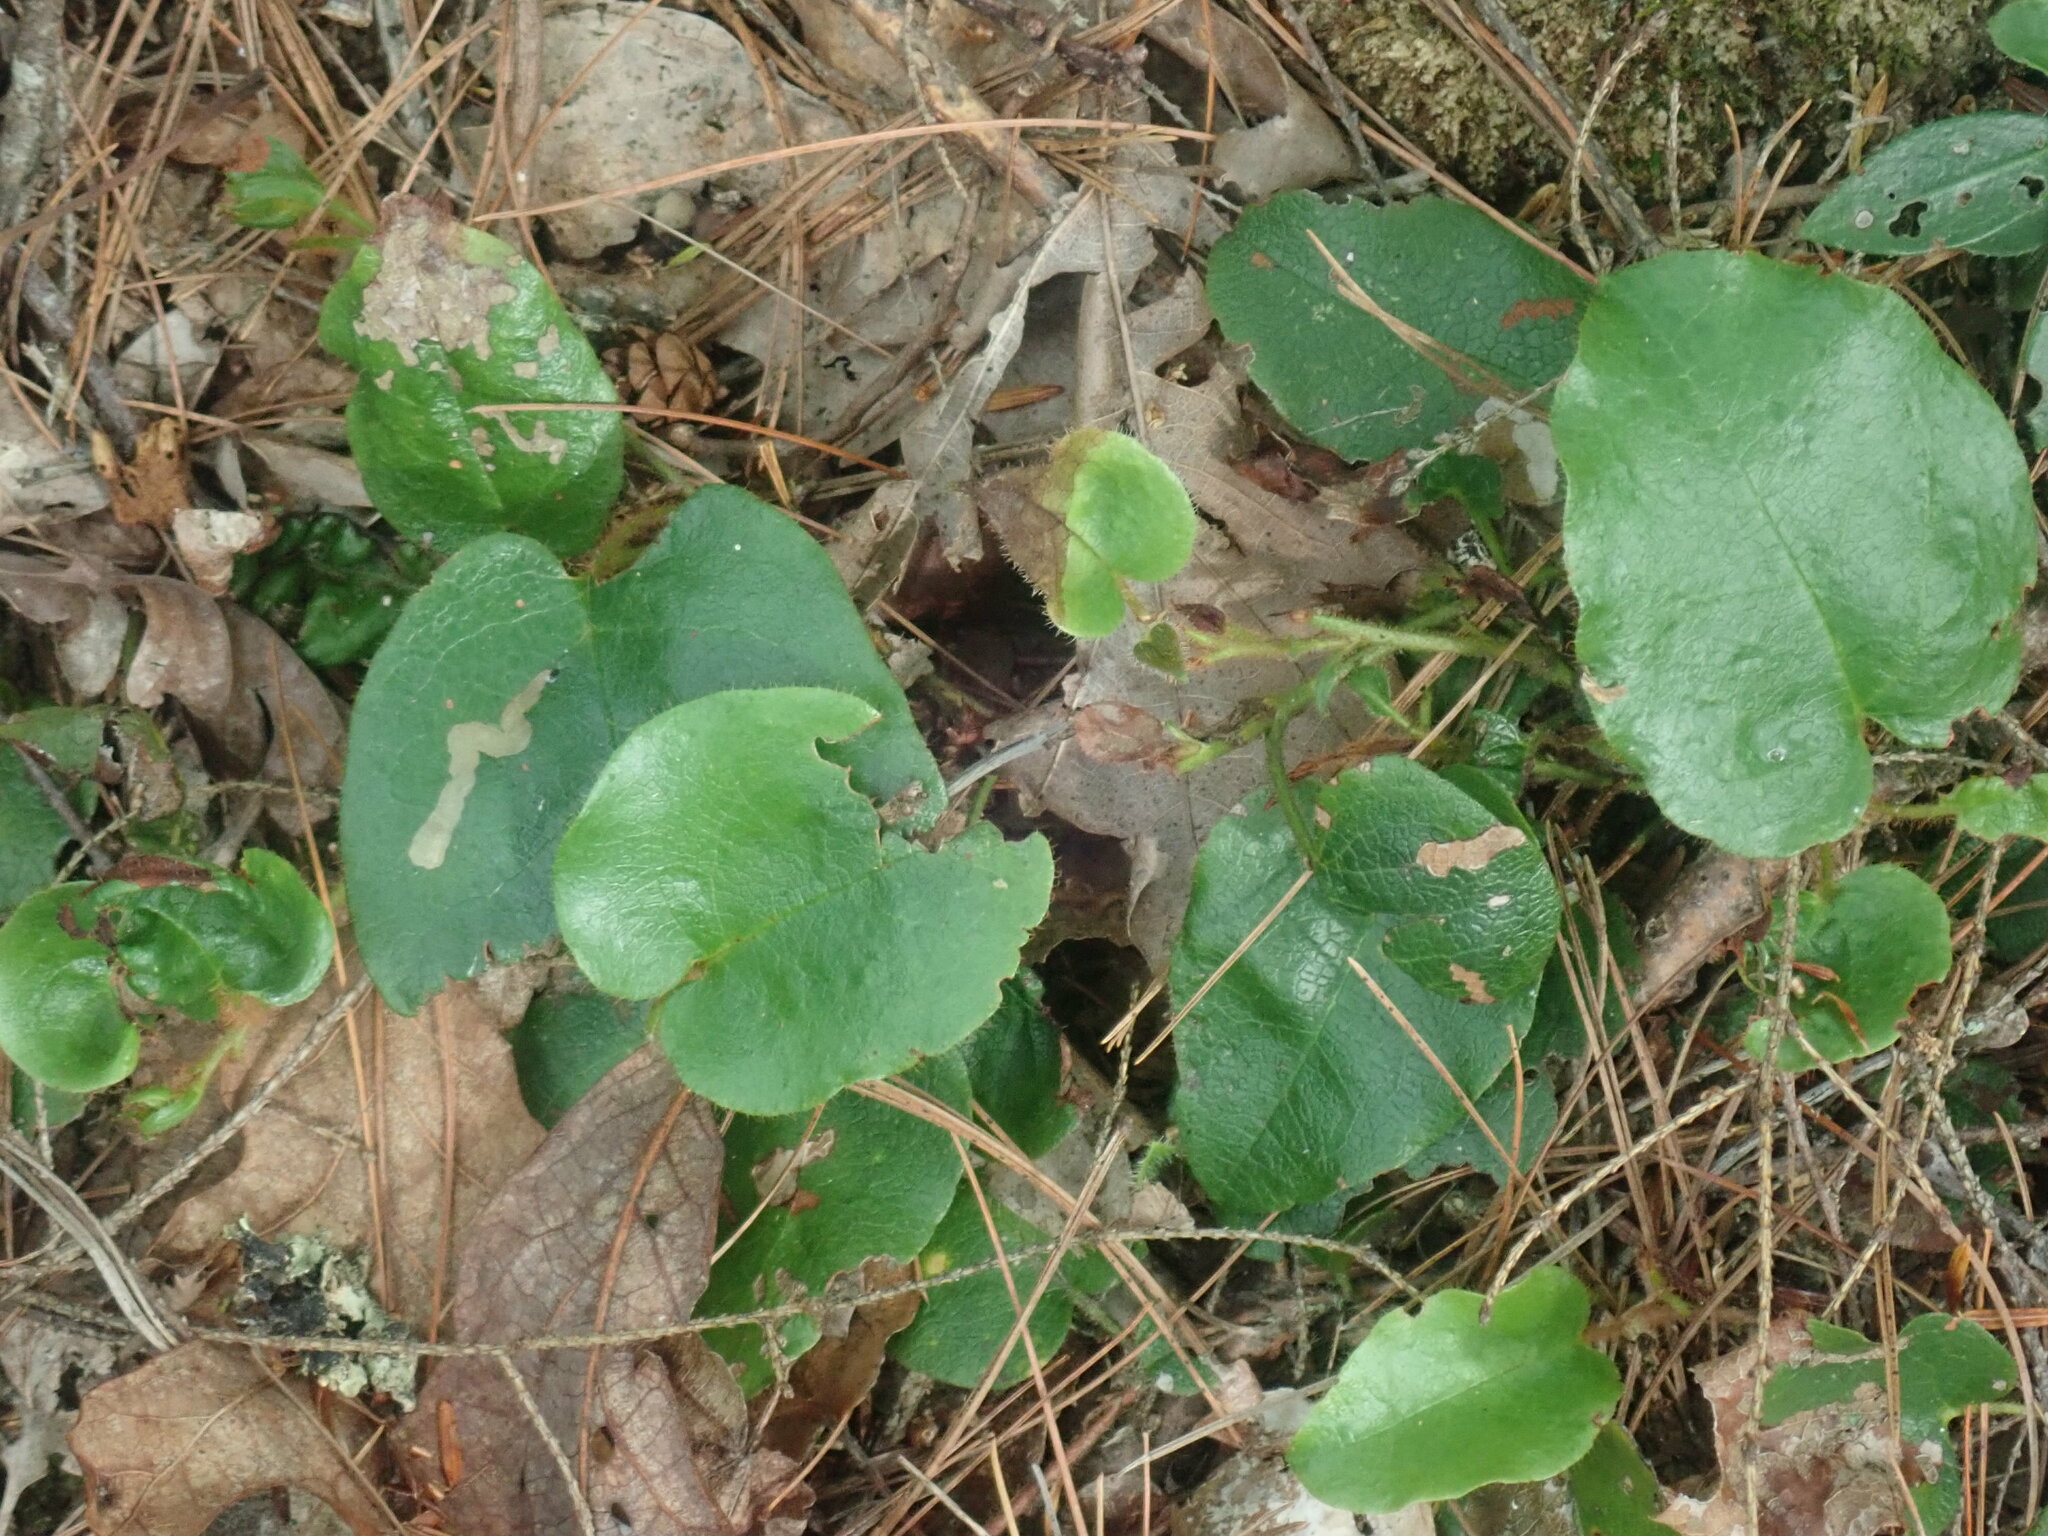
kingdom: Plantae
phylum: Tracheophyta
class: Magnoliopsida
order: Ericales
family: Ericaceae
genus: Epigaea
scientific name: Epigaea repens
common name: Gravelroot
